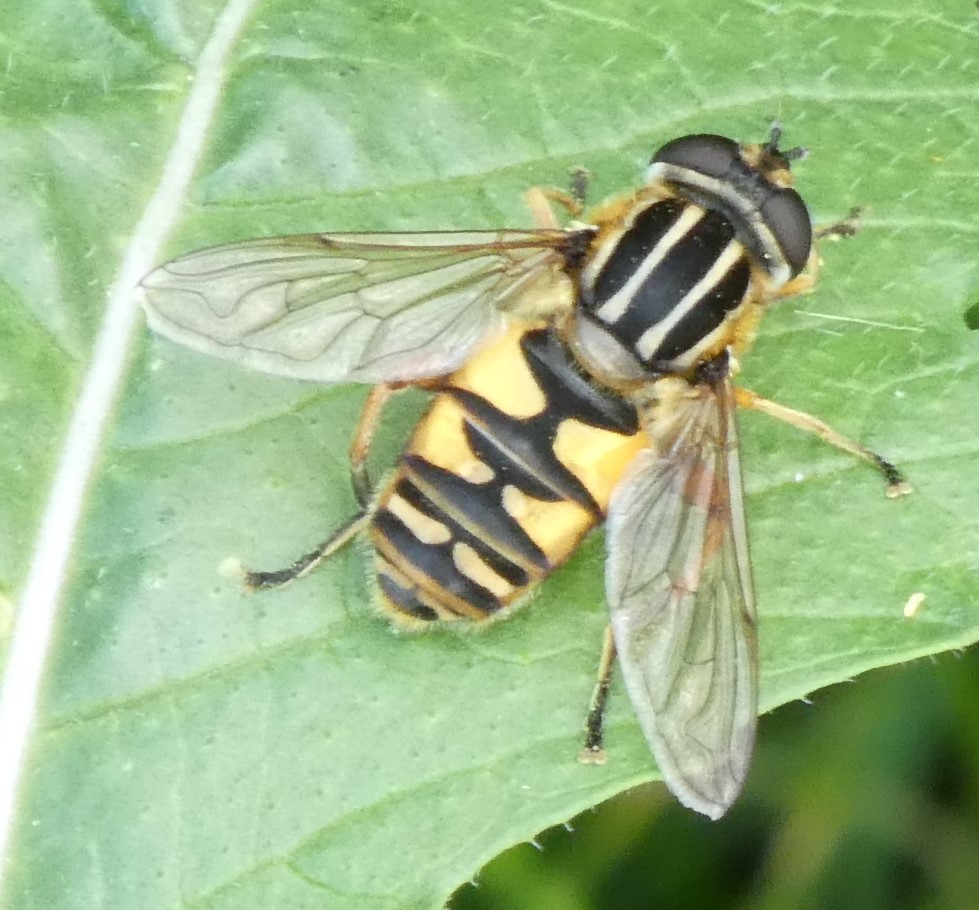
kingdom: Animalia
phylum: Arthropoda
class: Insecta
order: Diptera
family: Syrphidae
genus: Helophilus
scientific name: Helophilus pendulus
